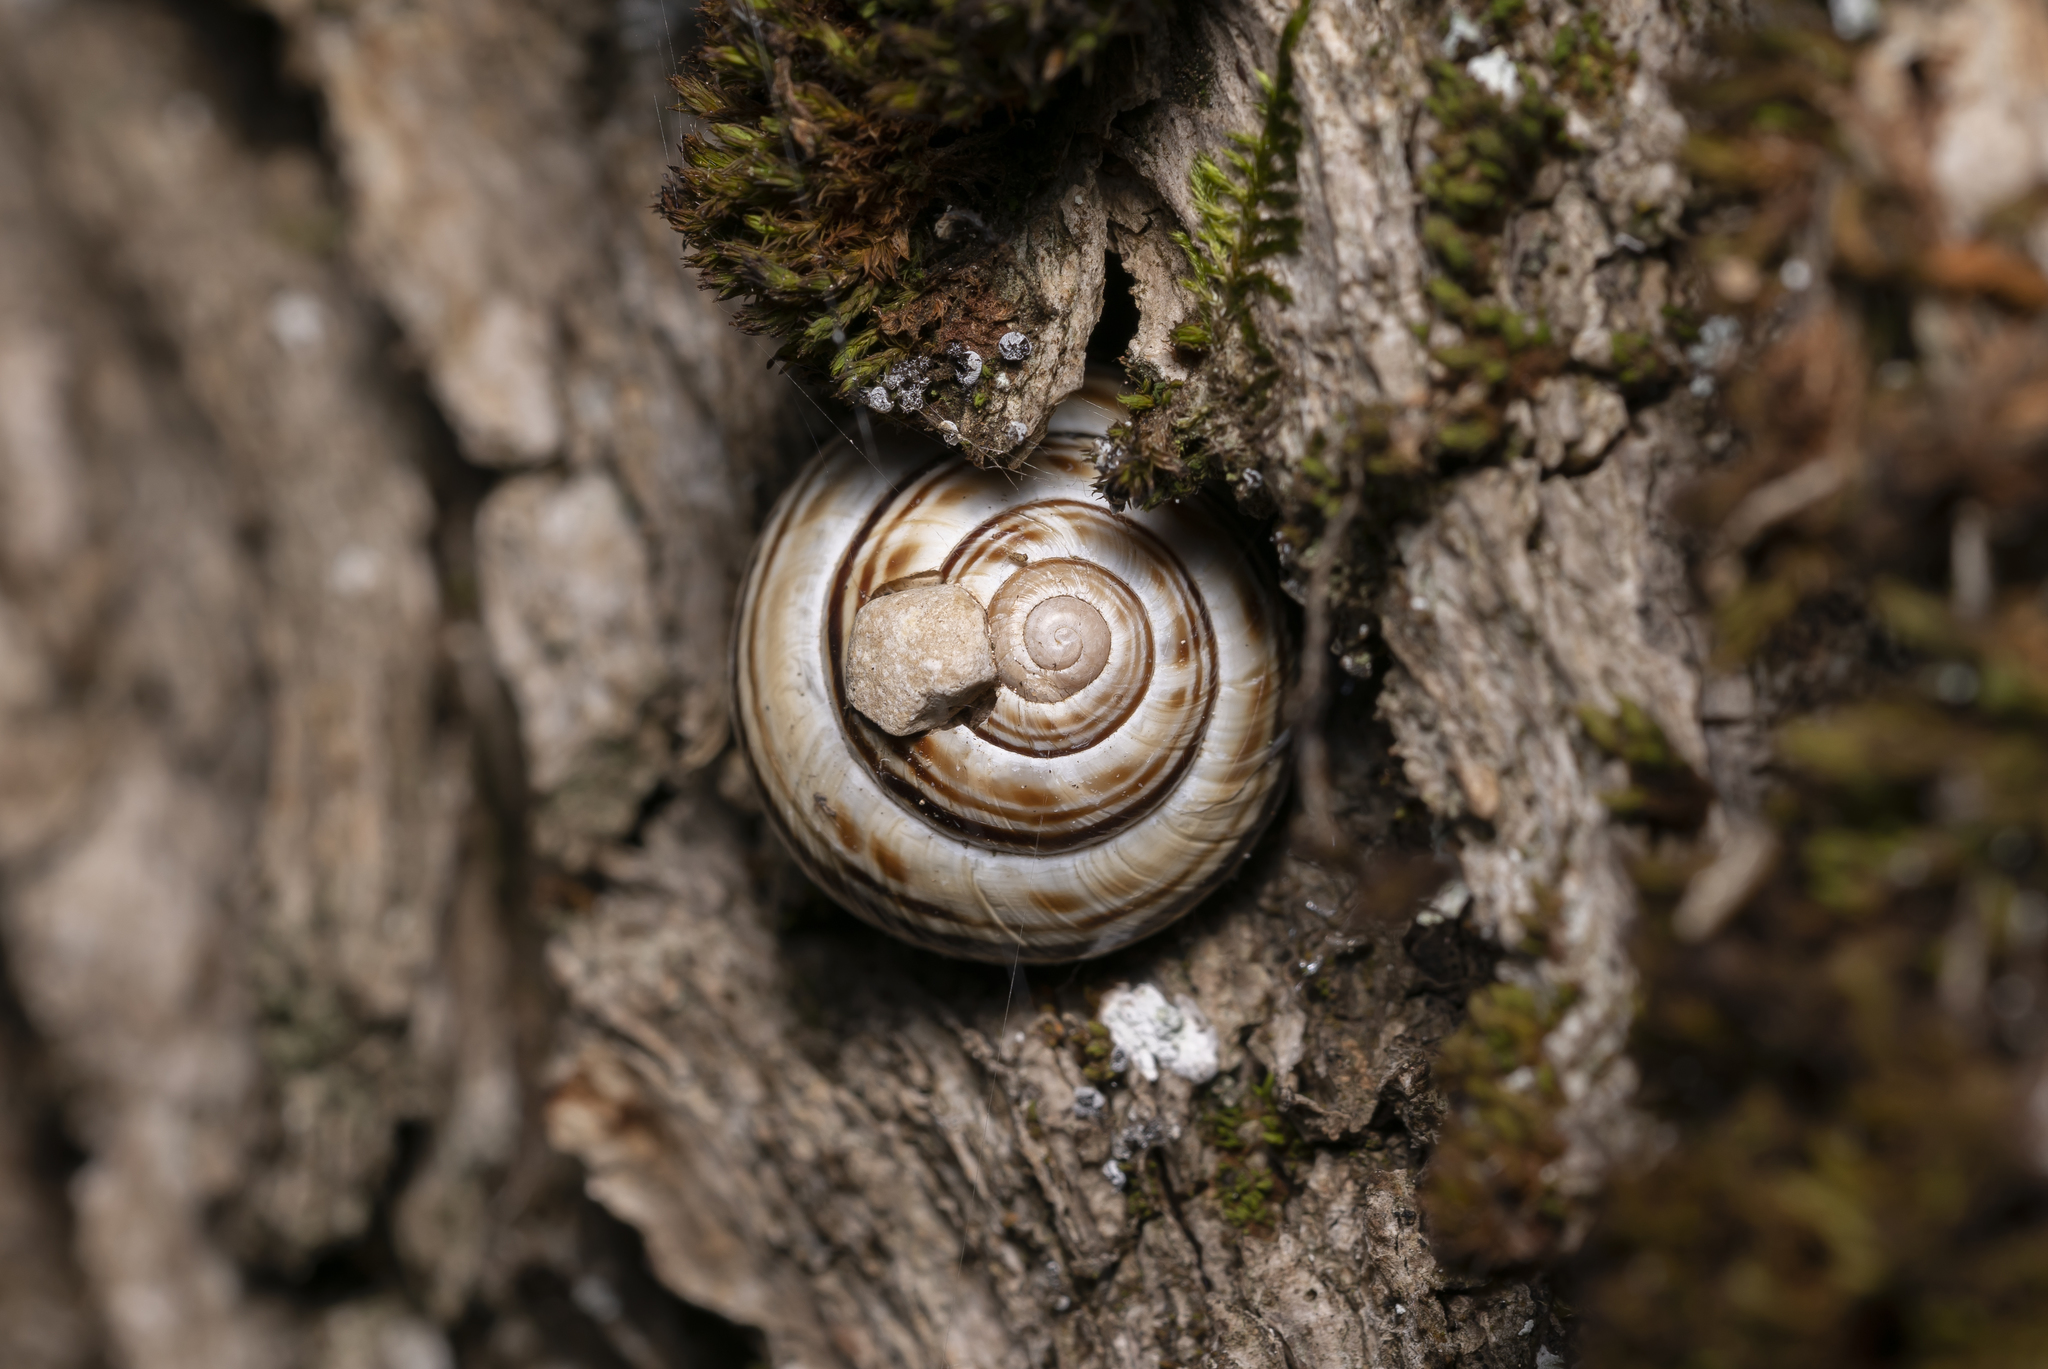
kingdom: Animalia
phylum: Mollusca
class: Gastropoda
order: Stylommatophora
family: Helicidae
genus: Macularia
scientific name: Macularia sylvatica
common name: Hélice sylvatique
